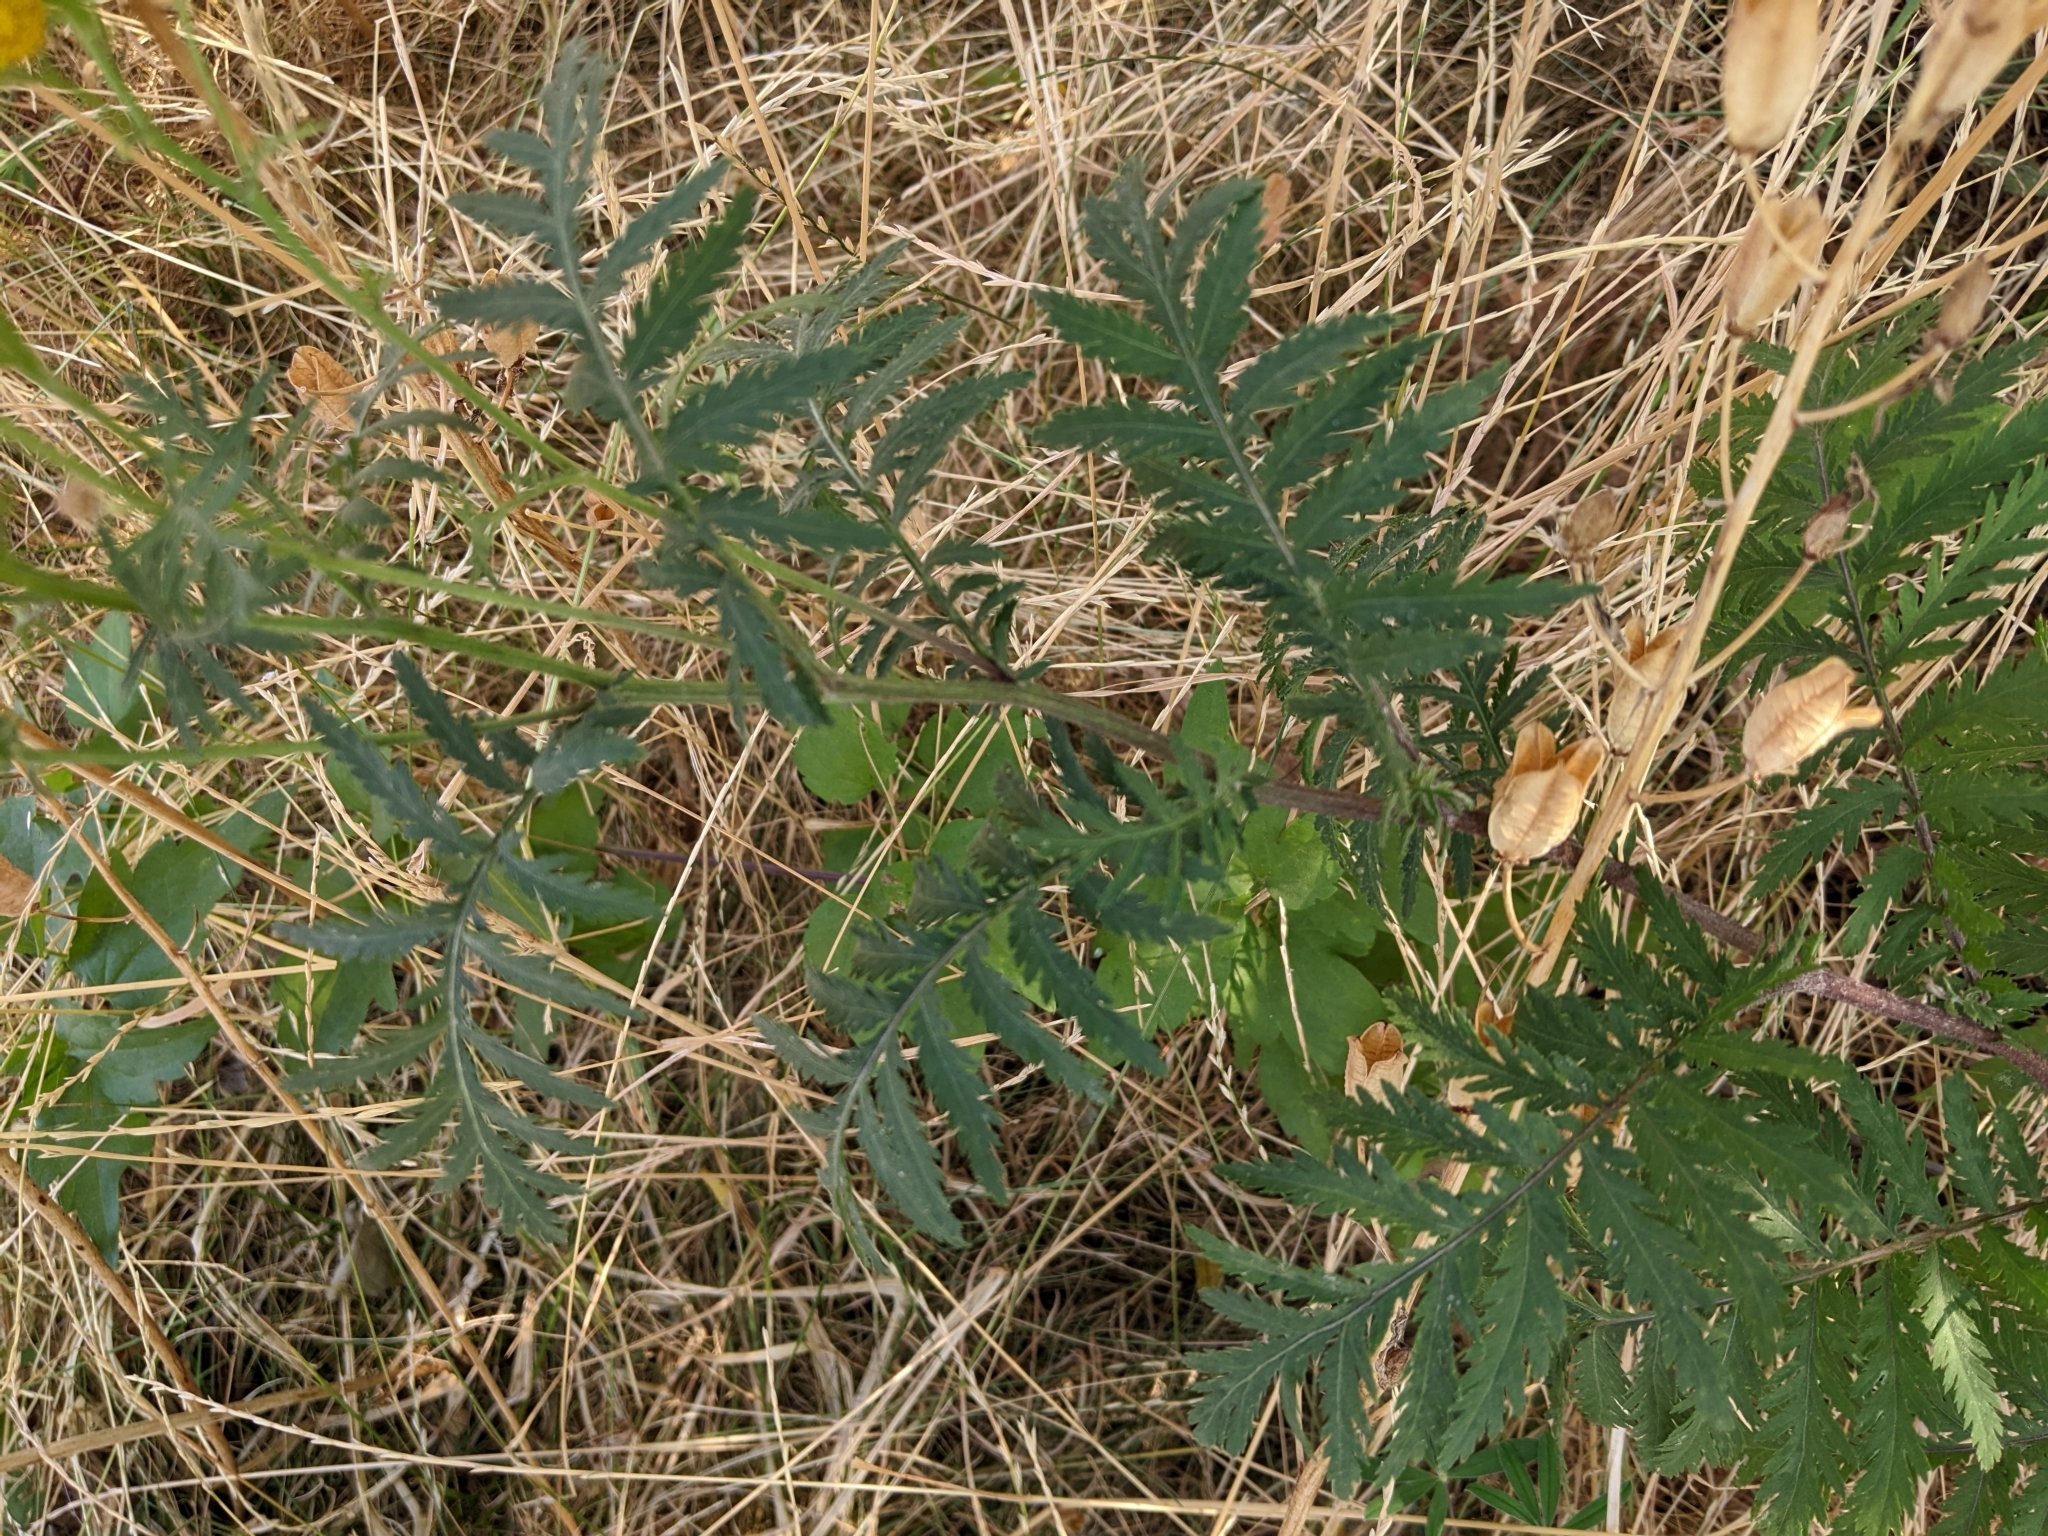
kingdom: Plantae
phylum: Tracheophyta
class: Magnoliopsida
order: Asterales
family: Asteraceae
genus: Tanacetum
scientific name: Tanacetum vulgare
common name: Common tansy
